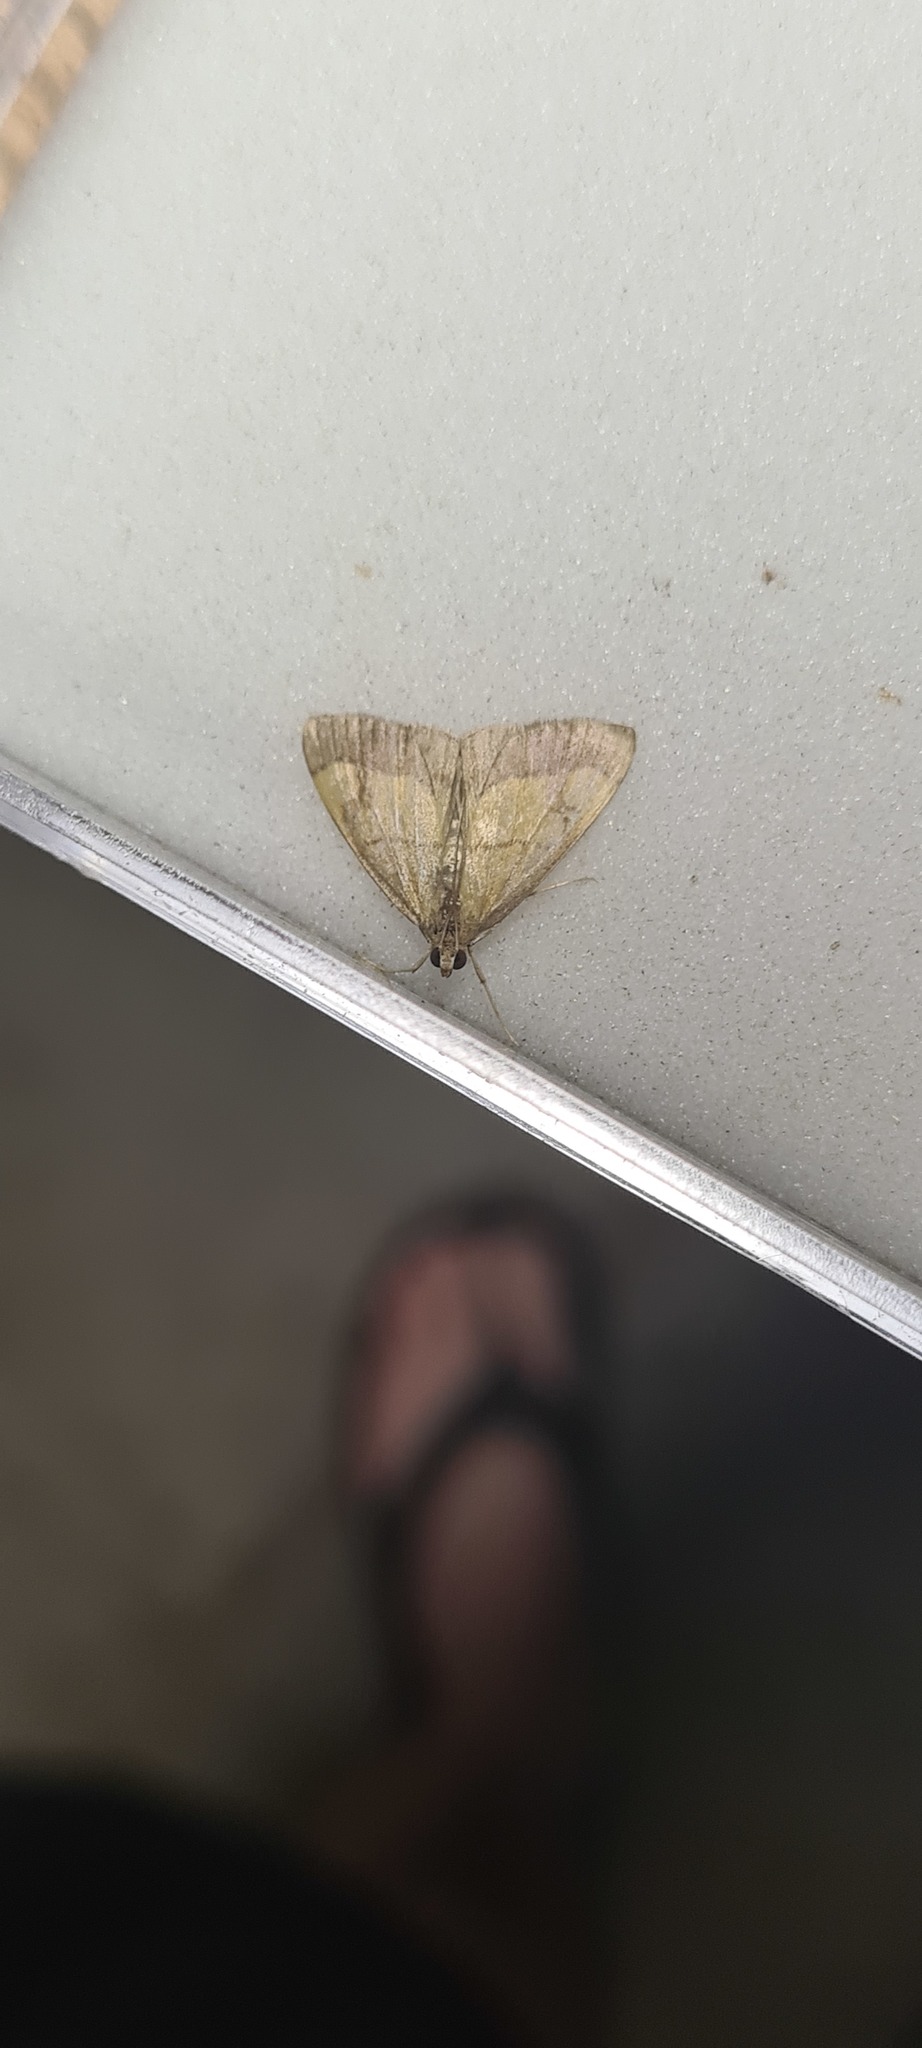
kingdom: Animalia
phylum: Arthropoda
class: Insecta
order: Lepidoptera
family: Crambidae
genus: Evergestis
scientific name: Evergestis limbata
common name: Dark bordered pearl
